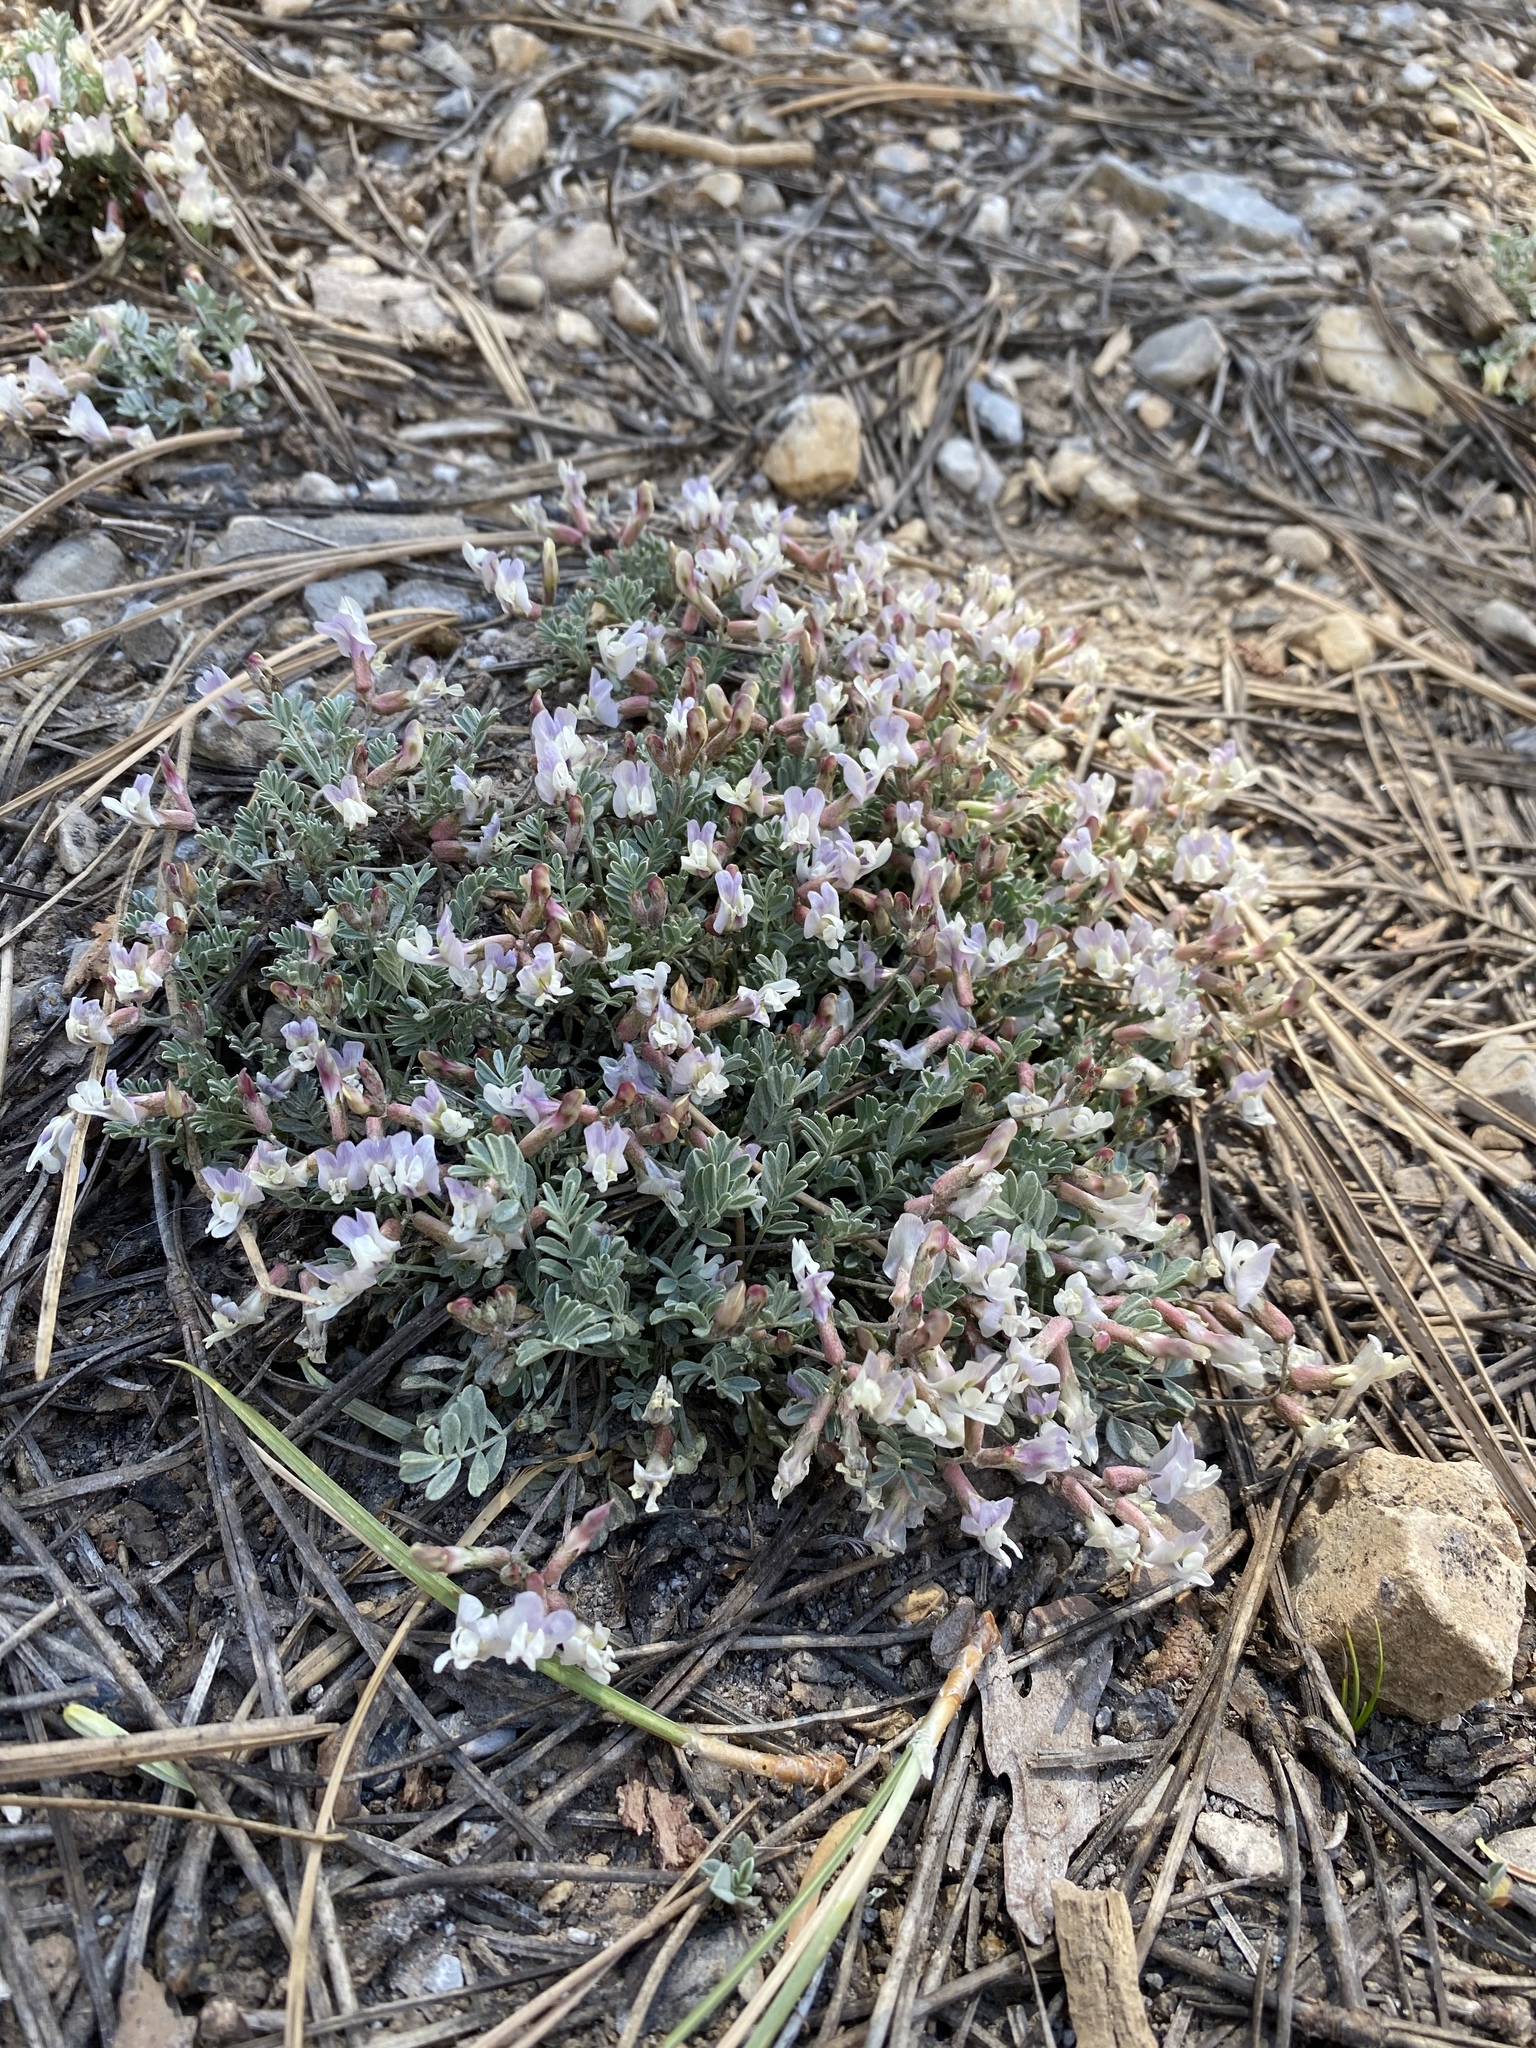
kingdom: Plantae
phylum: Tracheophyta
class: Magnoliopsida
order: Fabales
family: Fabaceae
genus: Astragalus
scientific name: Astragalus calycosus
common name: King's milkvetch
